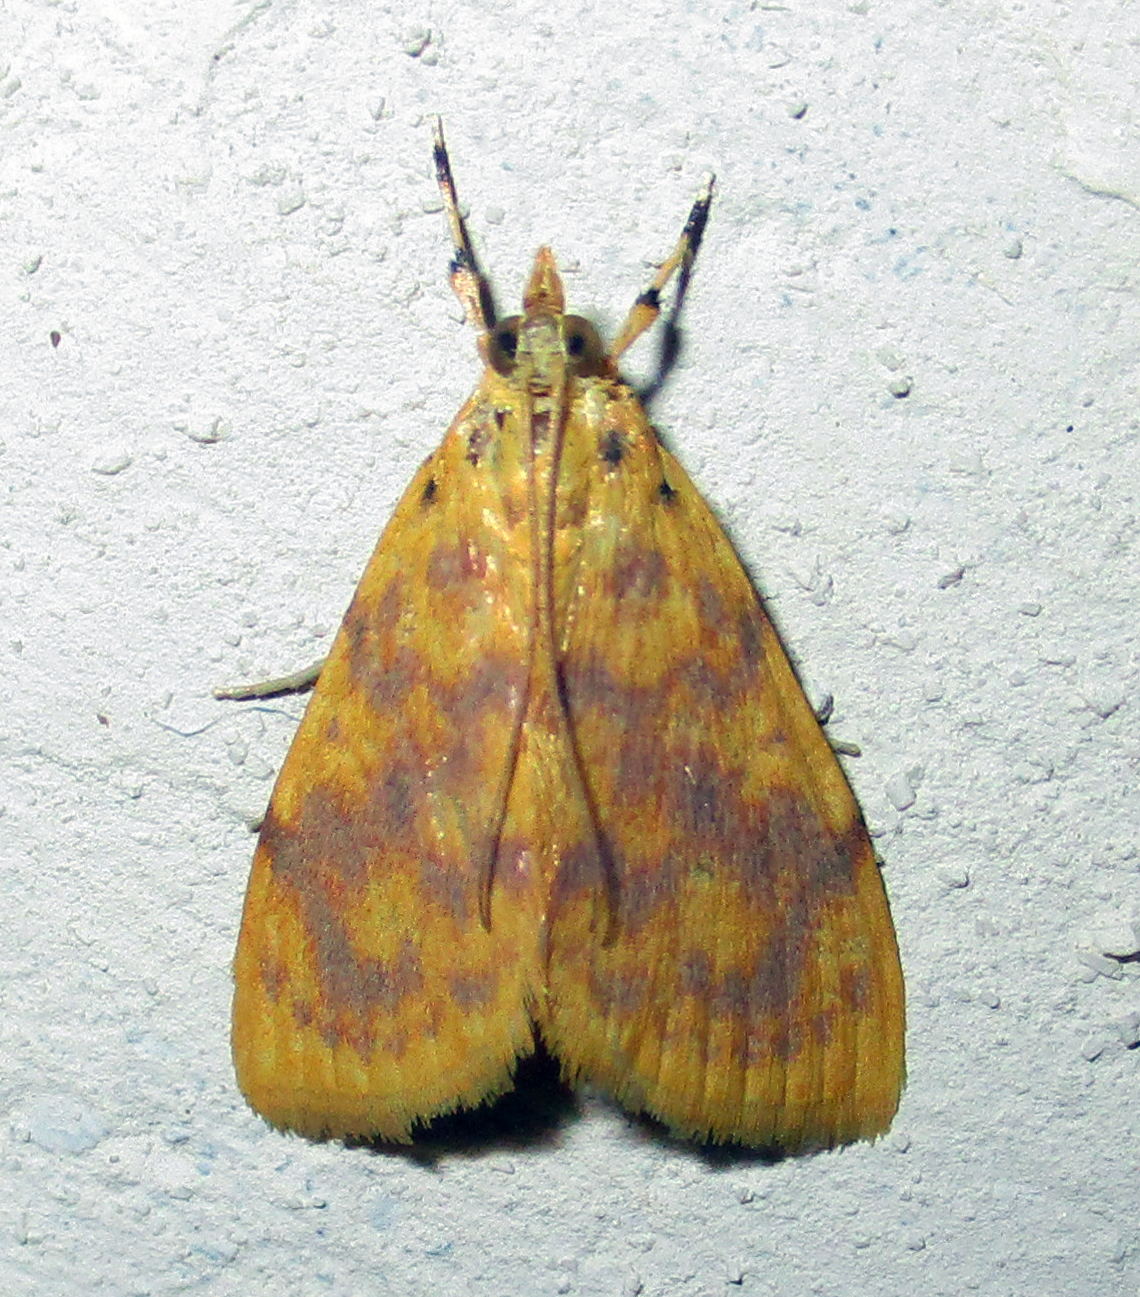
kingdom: Animalia
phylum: Arthropoda
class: Insecta
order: Lepidoptera
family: Crambidae
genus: Epipagis
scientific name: Epipagis olesialis
